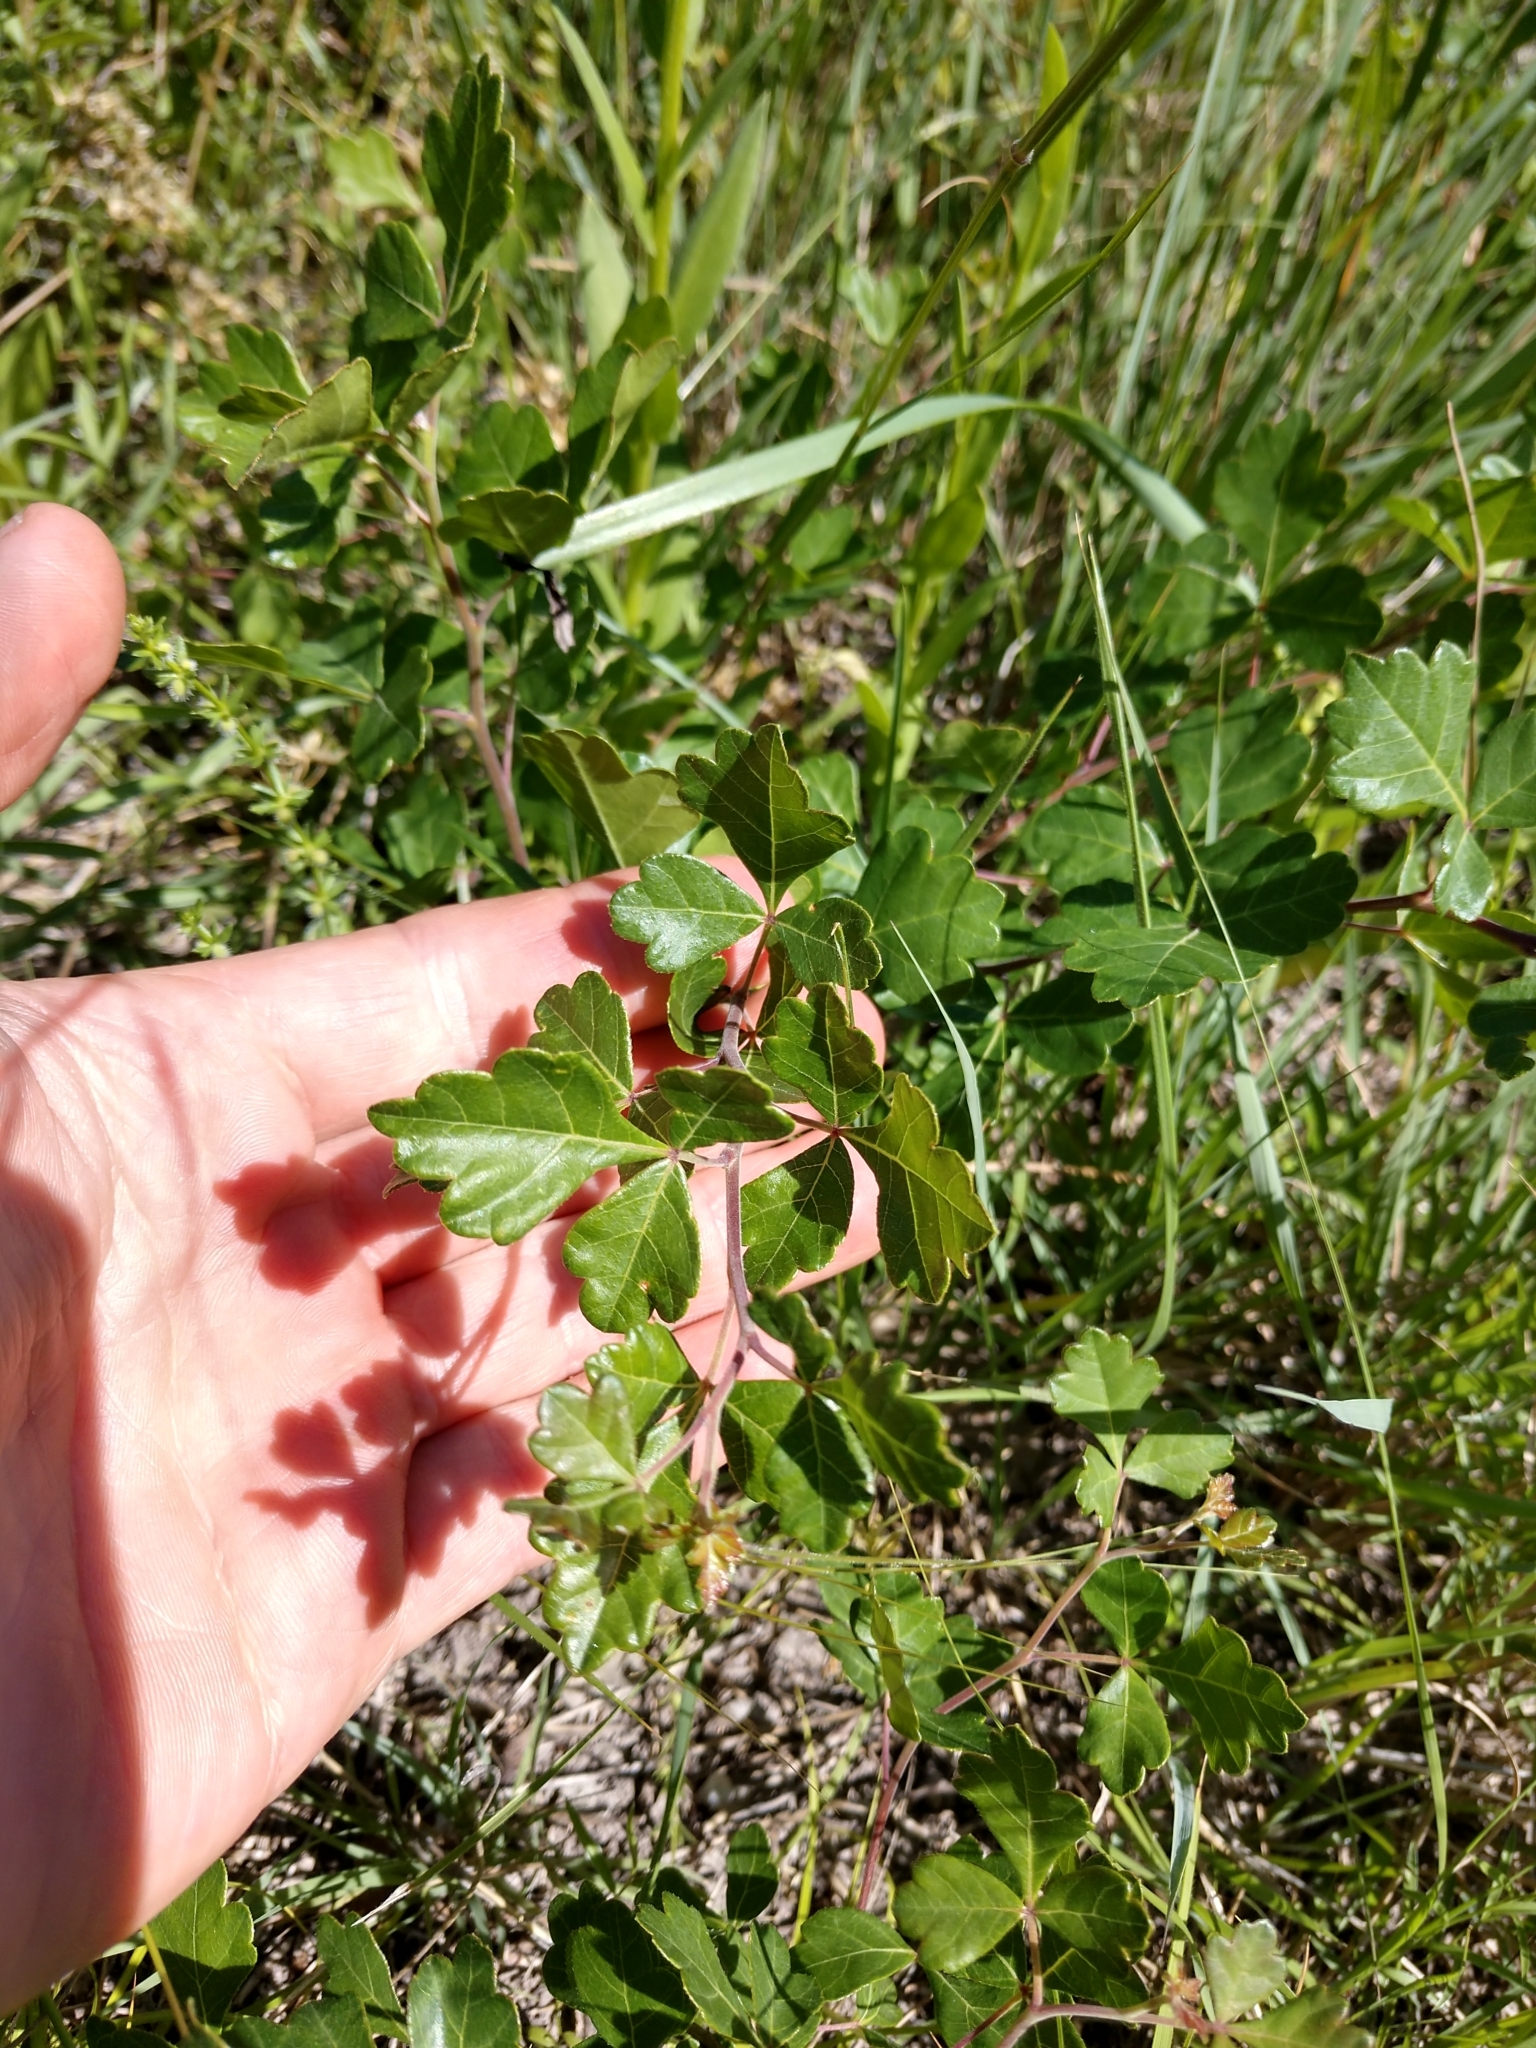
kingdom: Plantae
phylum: Tracheophyta
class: Magnoliopsida
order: Sapindales
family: Anacardiaceae
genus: Rhus
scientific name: Rhus aromatica
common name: Aromatic sumac
